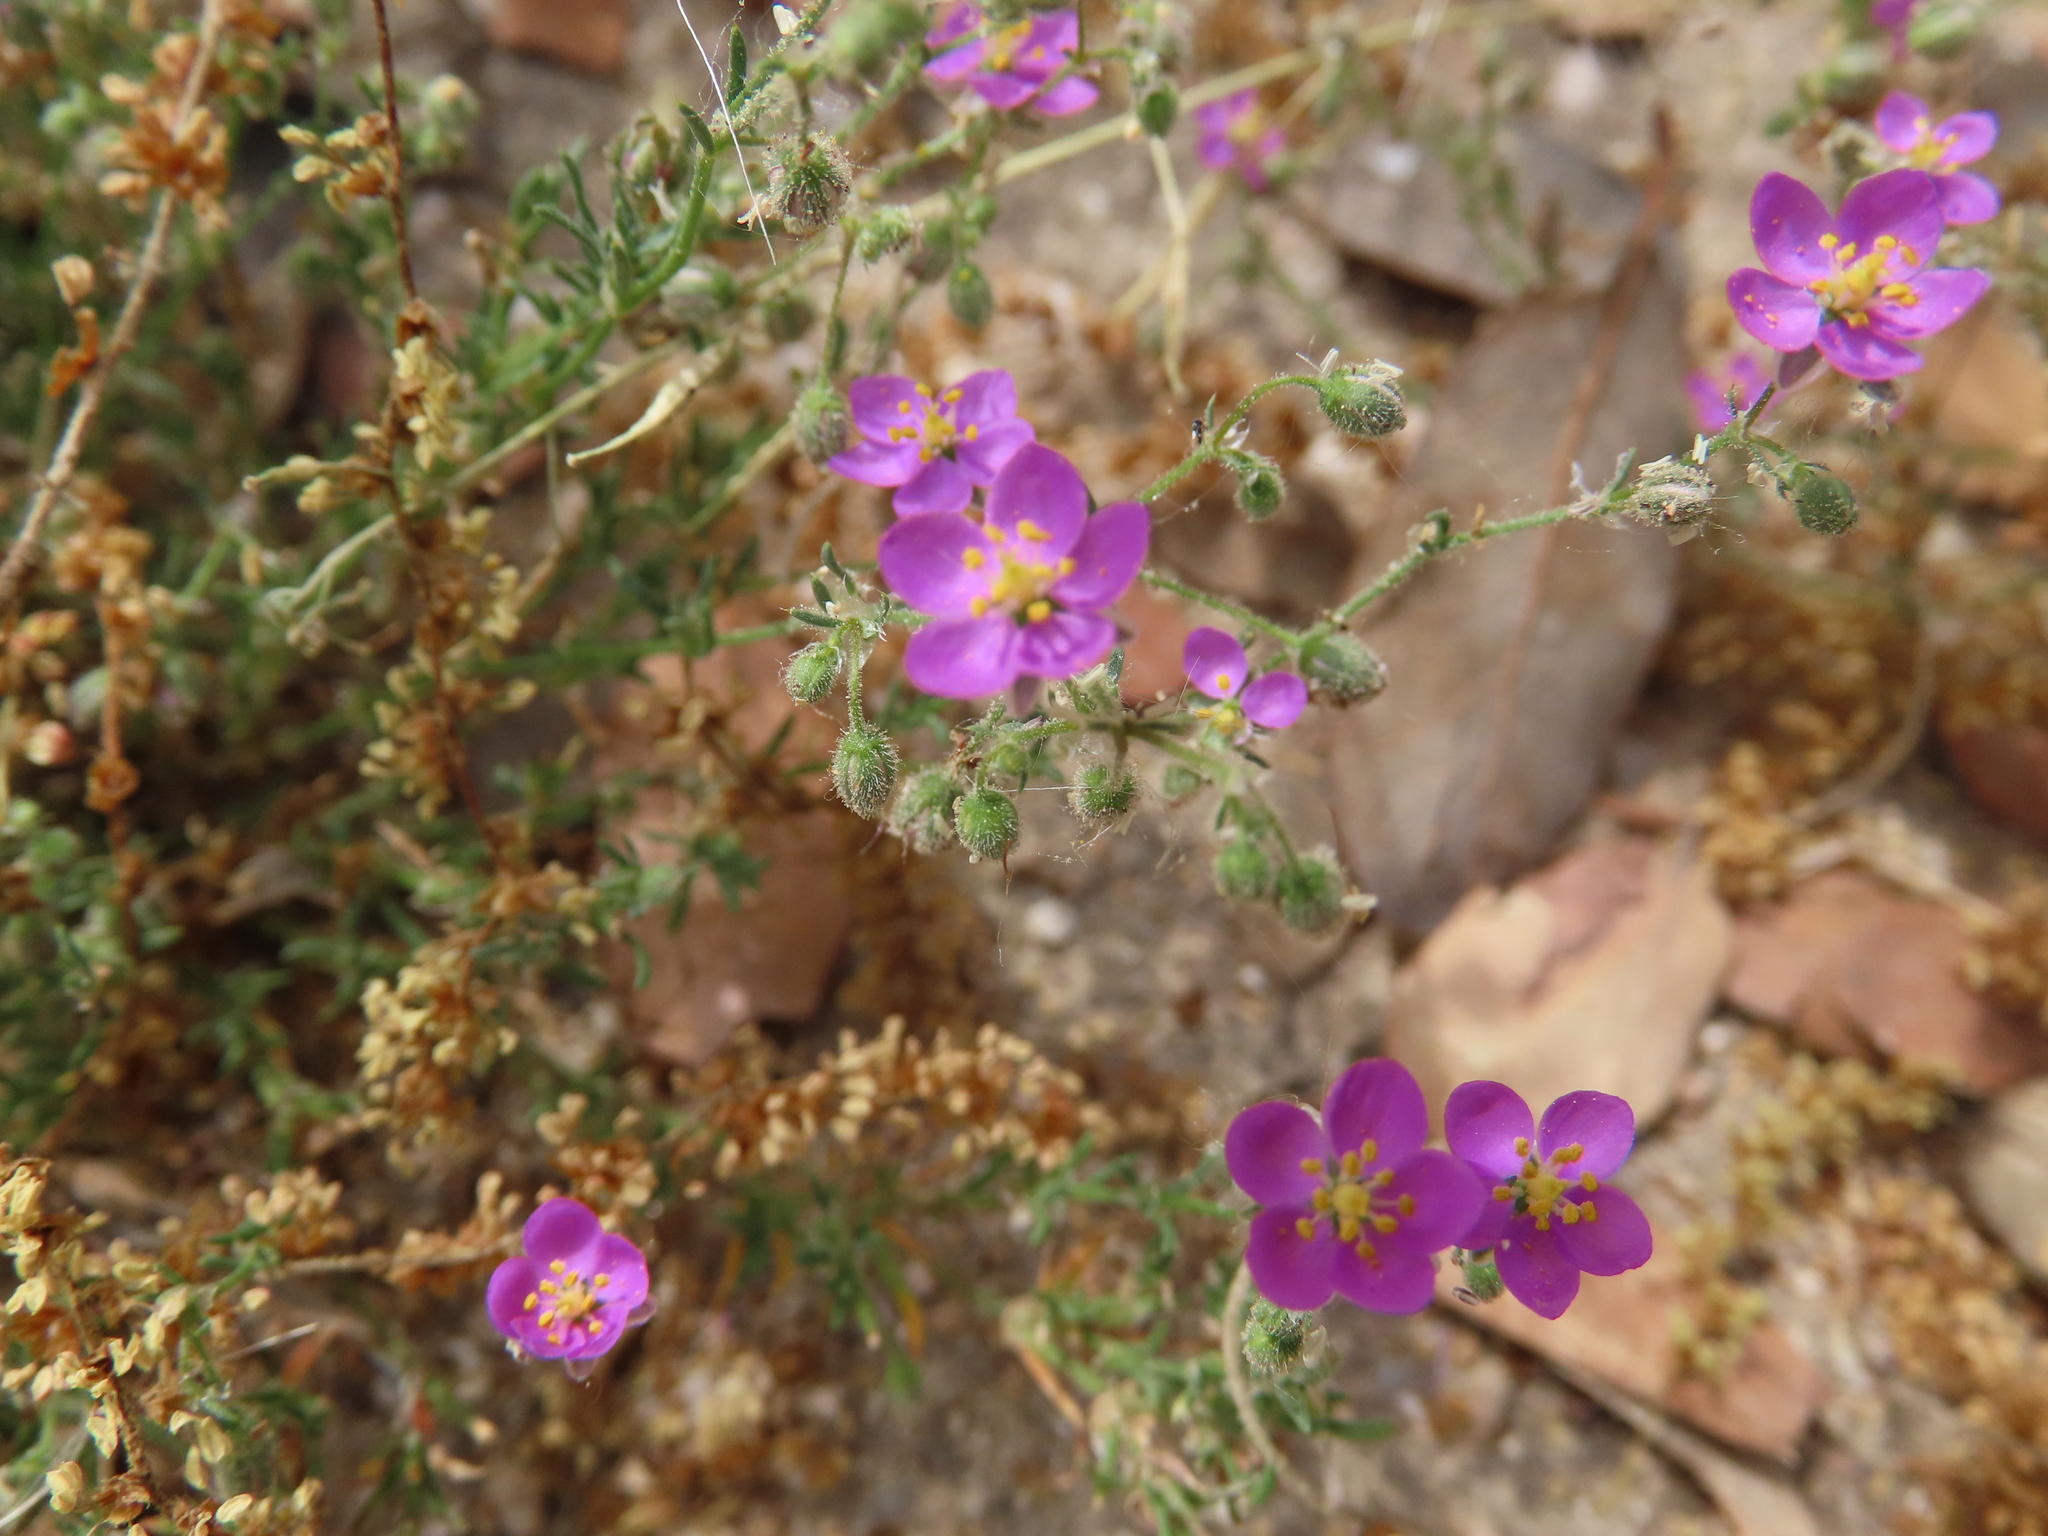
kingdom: Plantae
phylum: Tracheophyta
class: Magnoliopsida
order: Caryophyllales
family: Caryophyllaceae
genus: Spergularia
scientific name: Spergularia purpurea
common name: Purple sandspurry
